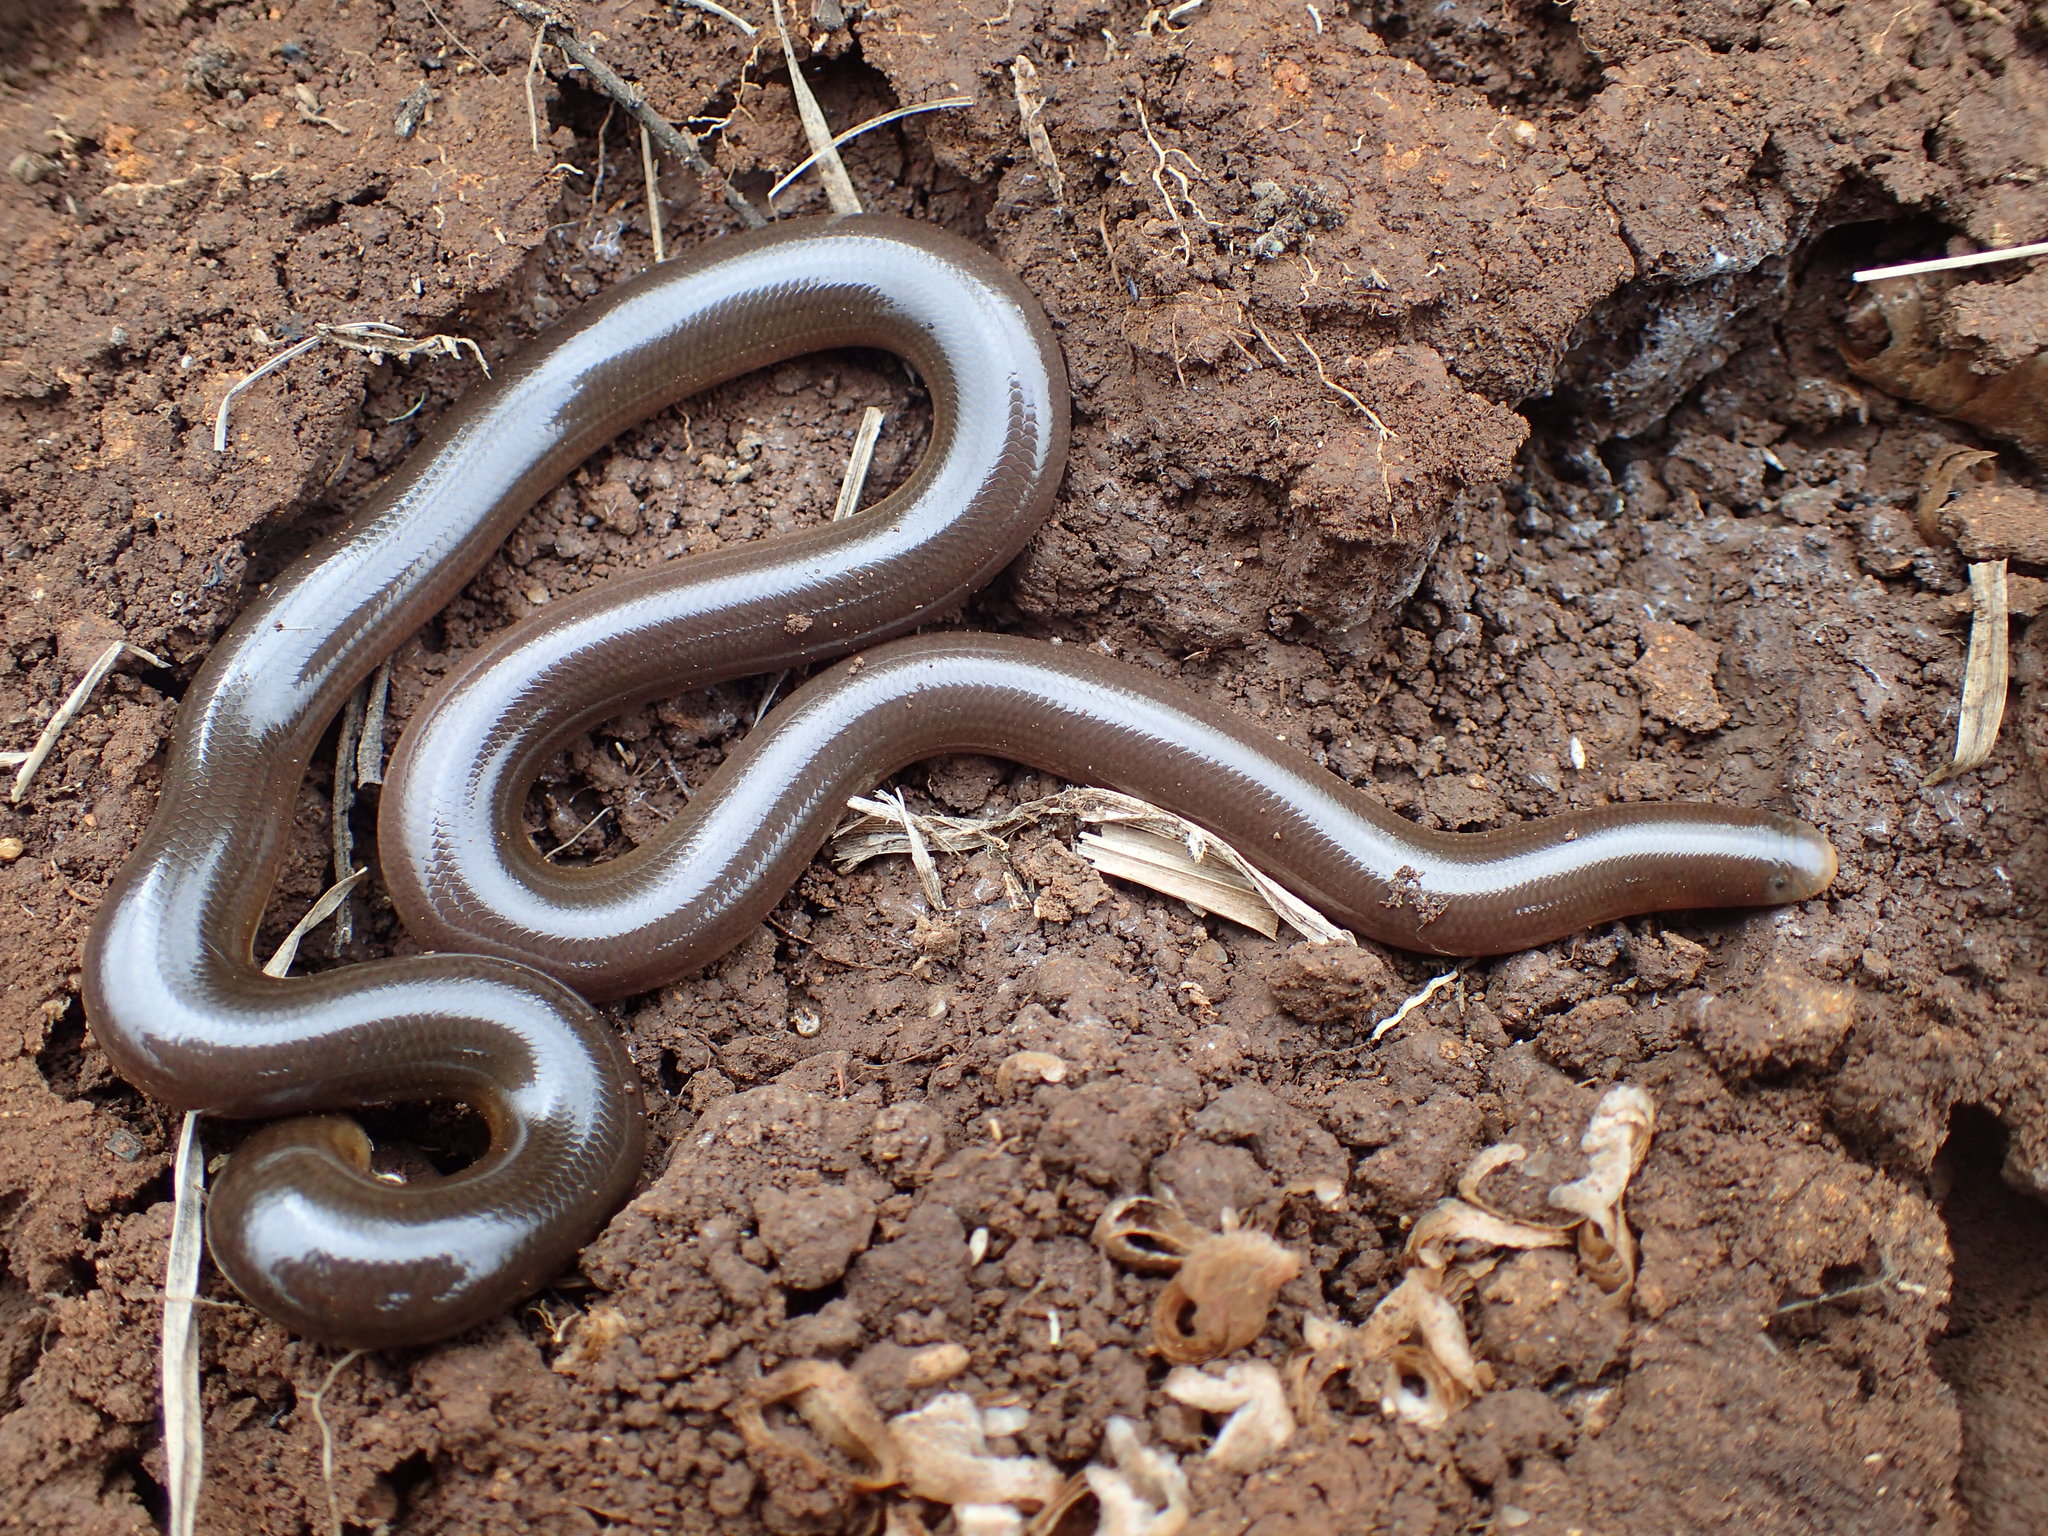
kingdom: Animalia
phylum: Chordata
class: Squamata
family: Typhlopidae
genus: Afrotyphlops
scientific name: Afrotyphlops bibronii
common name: Bibron's blind snake
